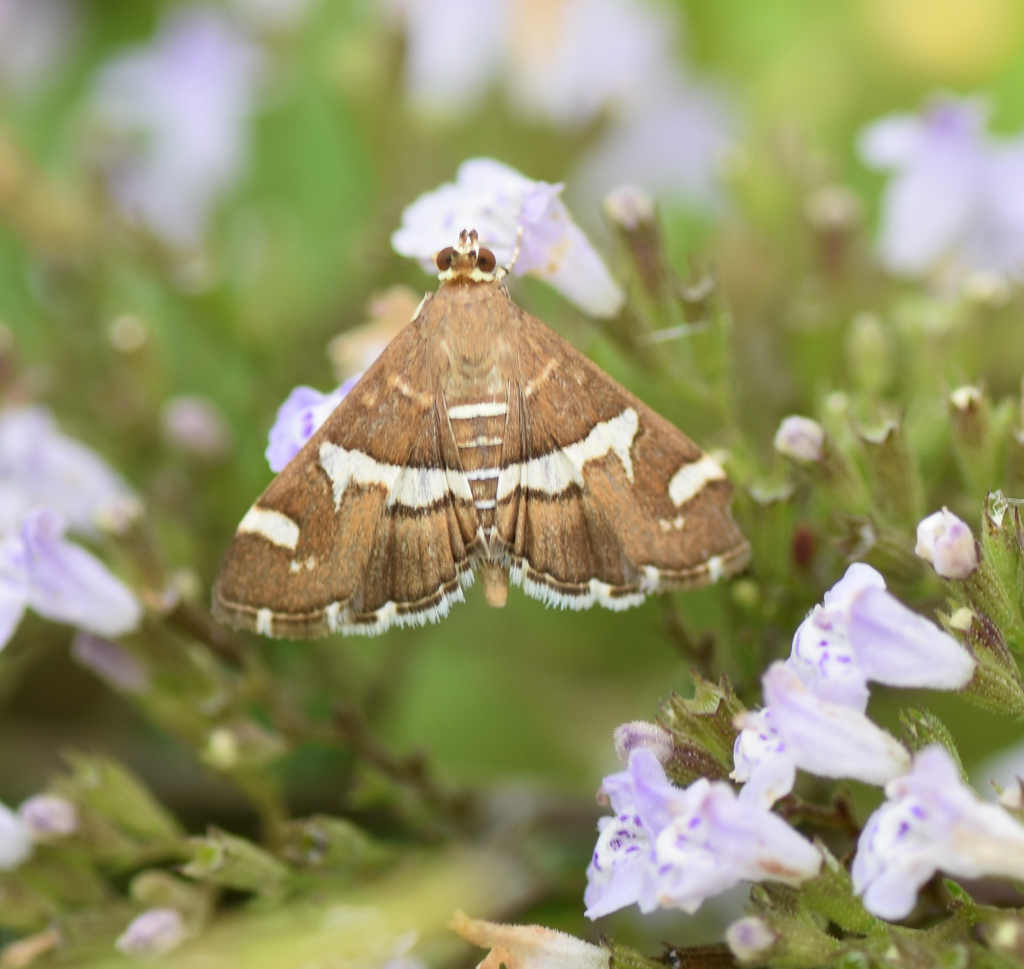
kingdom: Animalia
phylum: Arthropoda
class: Insecta
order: Lepidoptera
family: Crambidae
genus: Spoladea
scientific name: Spoladea recurvalis
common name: Beet webworm moth
